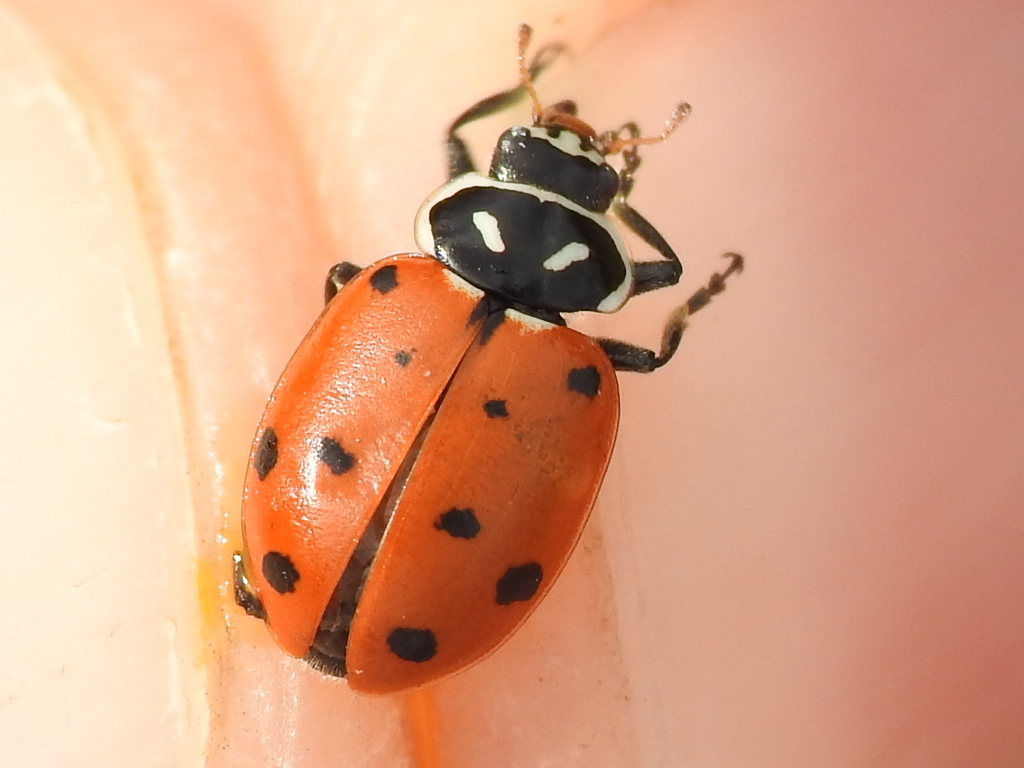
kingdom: Animalia
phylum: Arthropoda
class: Insecta
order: Coleoptera
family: Coccinellidae
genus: Hippodamia
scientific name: Hippodamia convergens
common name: Convergent lady beetle
